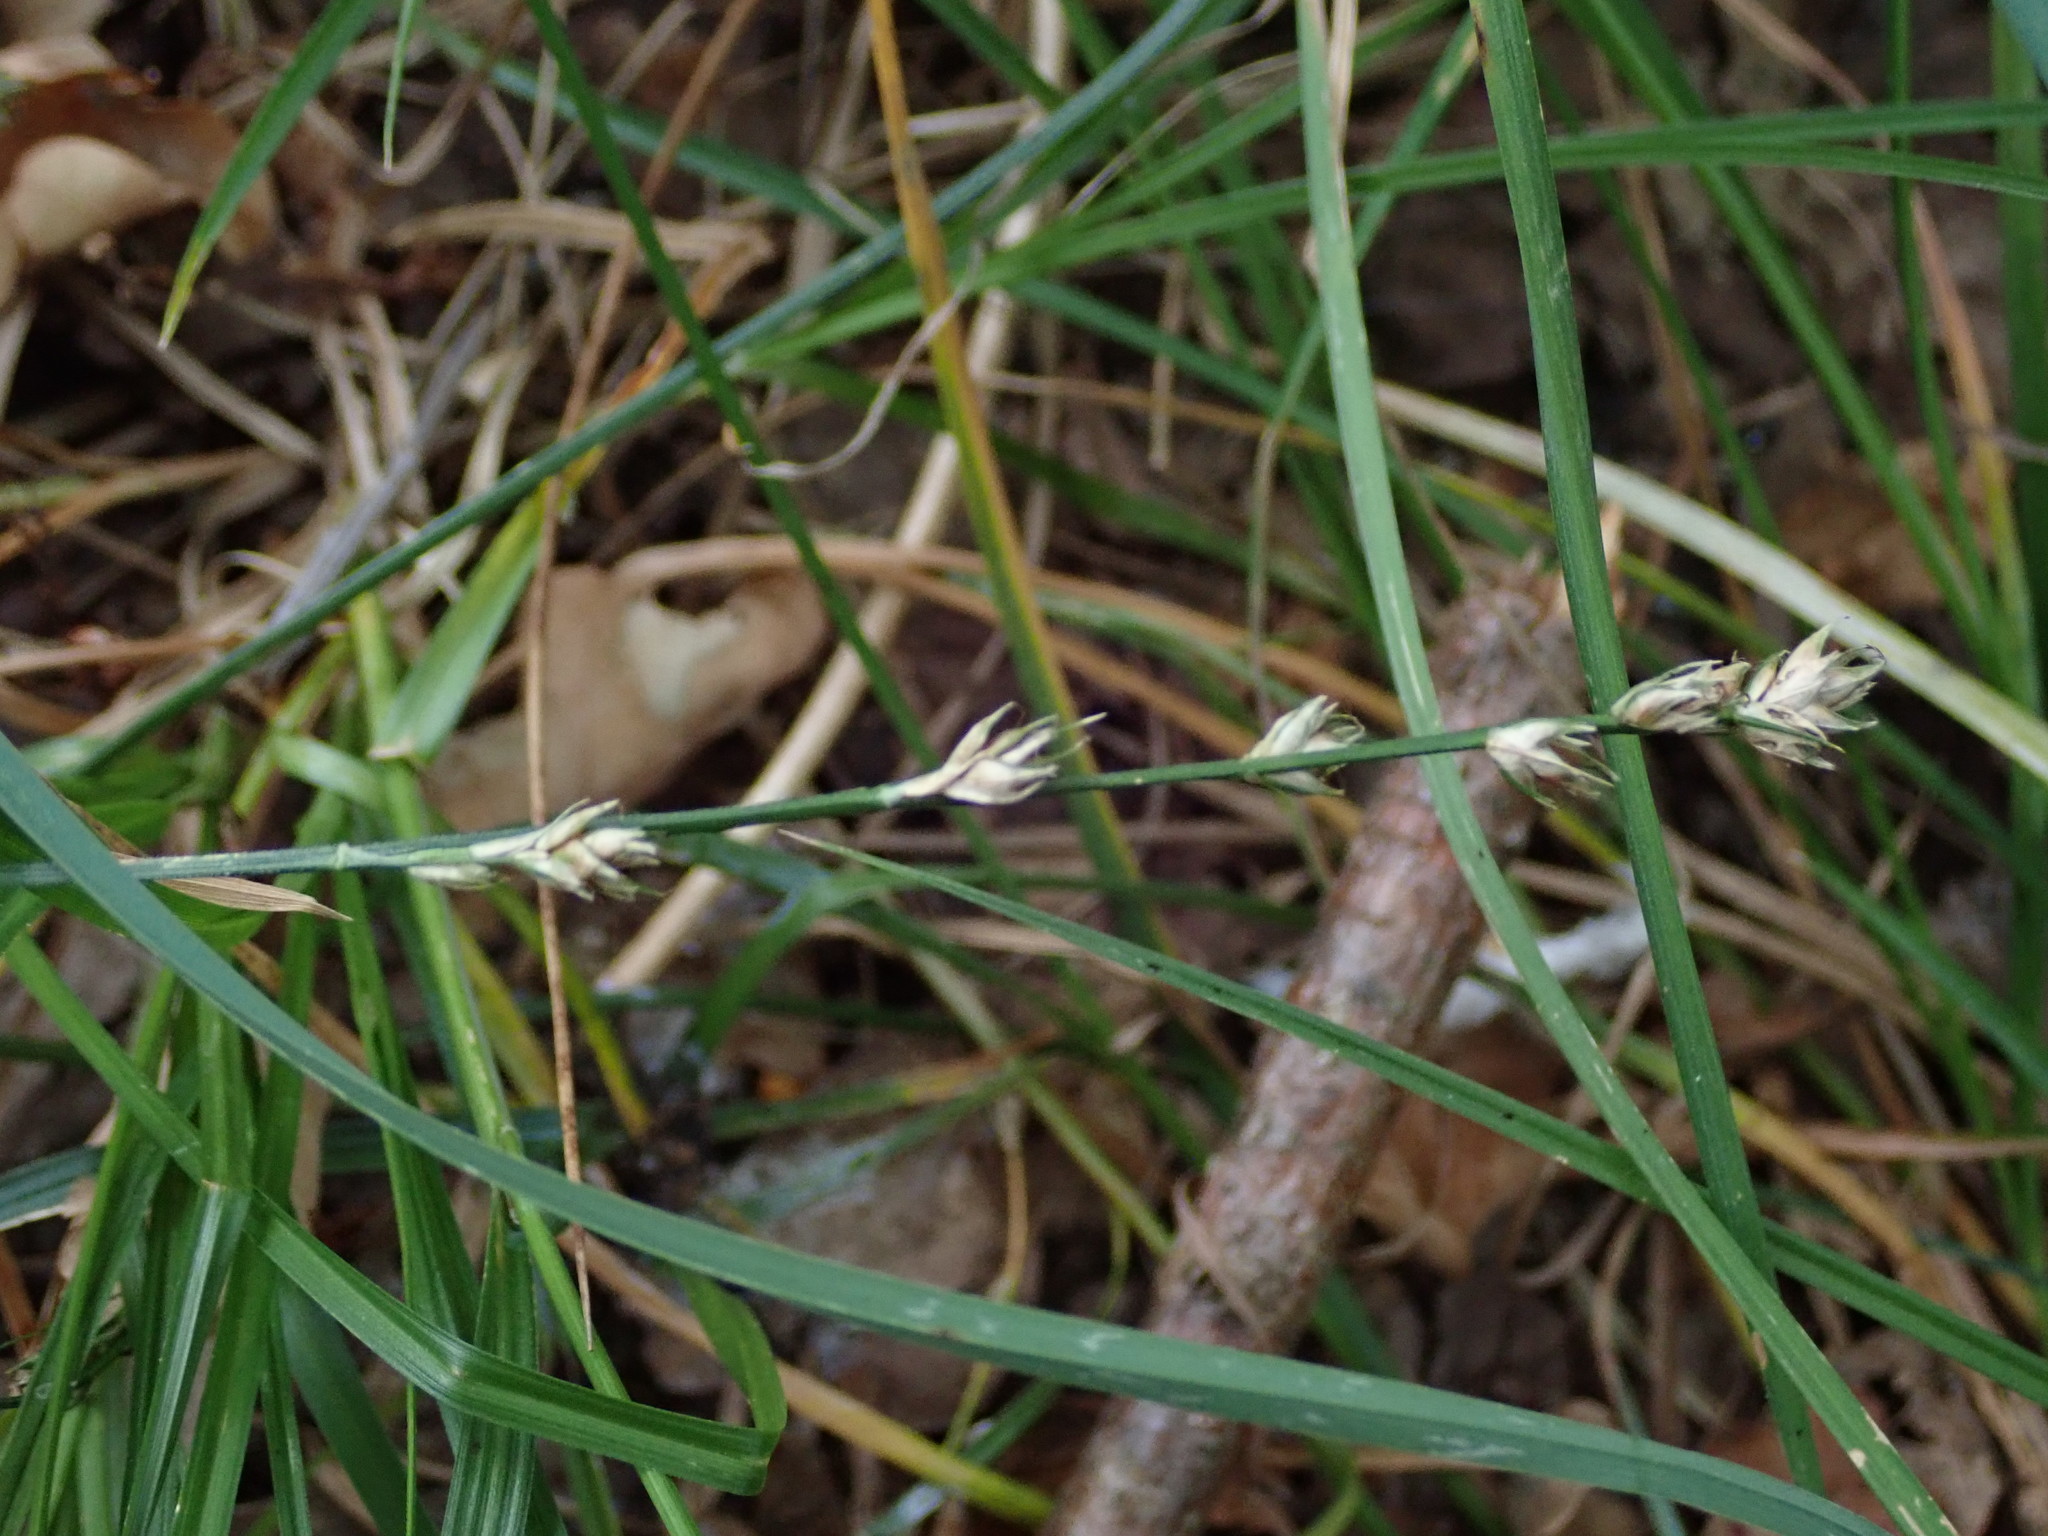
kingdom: Plantae
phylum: Tracheophyta
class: Liliopsida
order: Poales
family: Cyperaceae
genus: Carex
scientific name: Carex divulsa
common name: Grassland sedge
